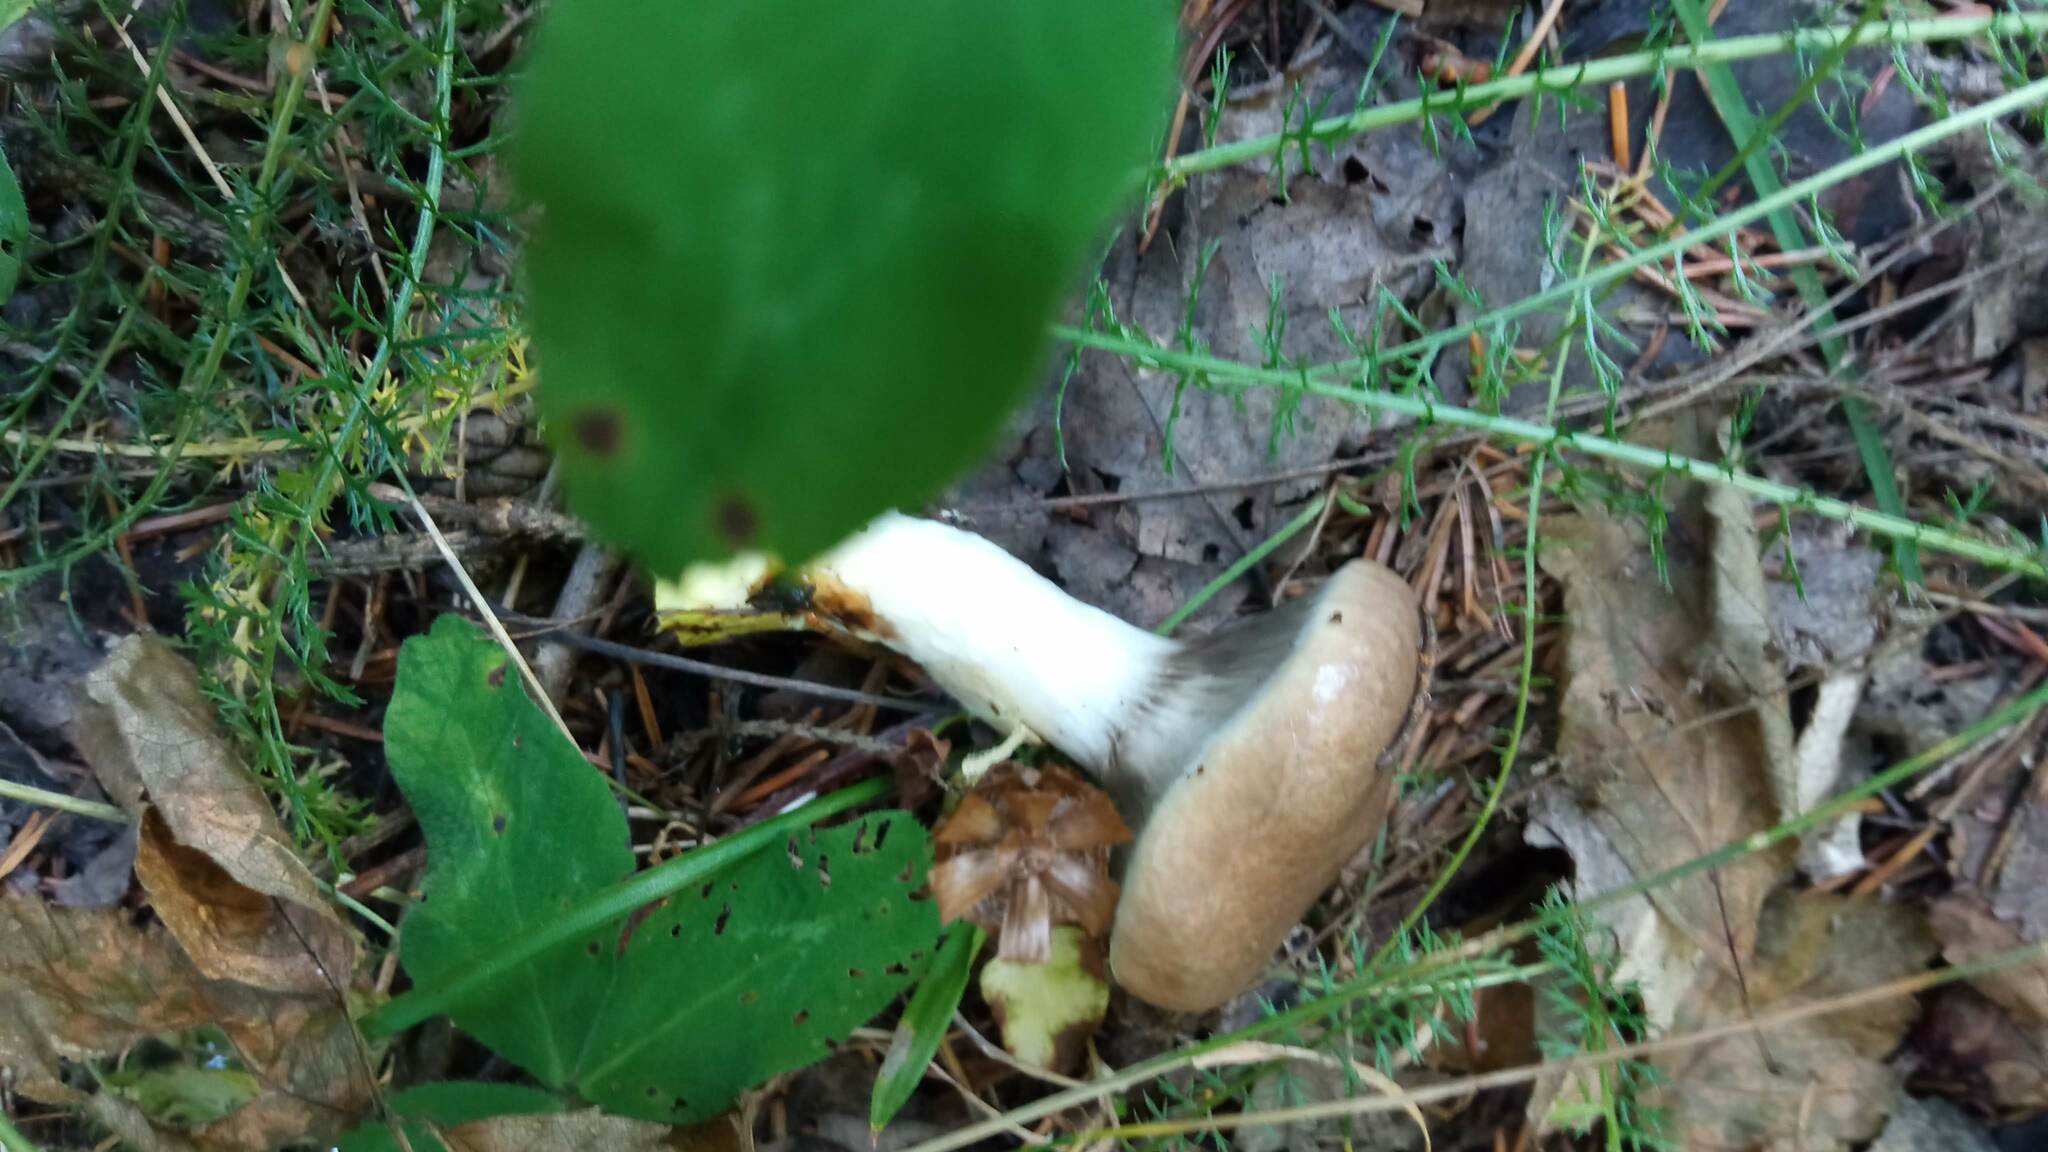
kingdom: Fungi
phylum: Basidiomycota
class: Agaricomycetes
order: Boletales
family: Gomphidiaceae
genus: Gomphidius
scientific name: Gomphidius glutinosus
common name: Slimy spike
